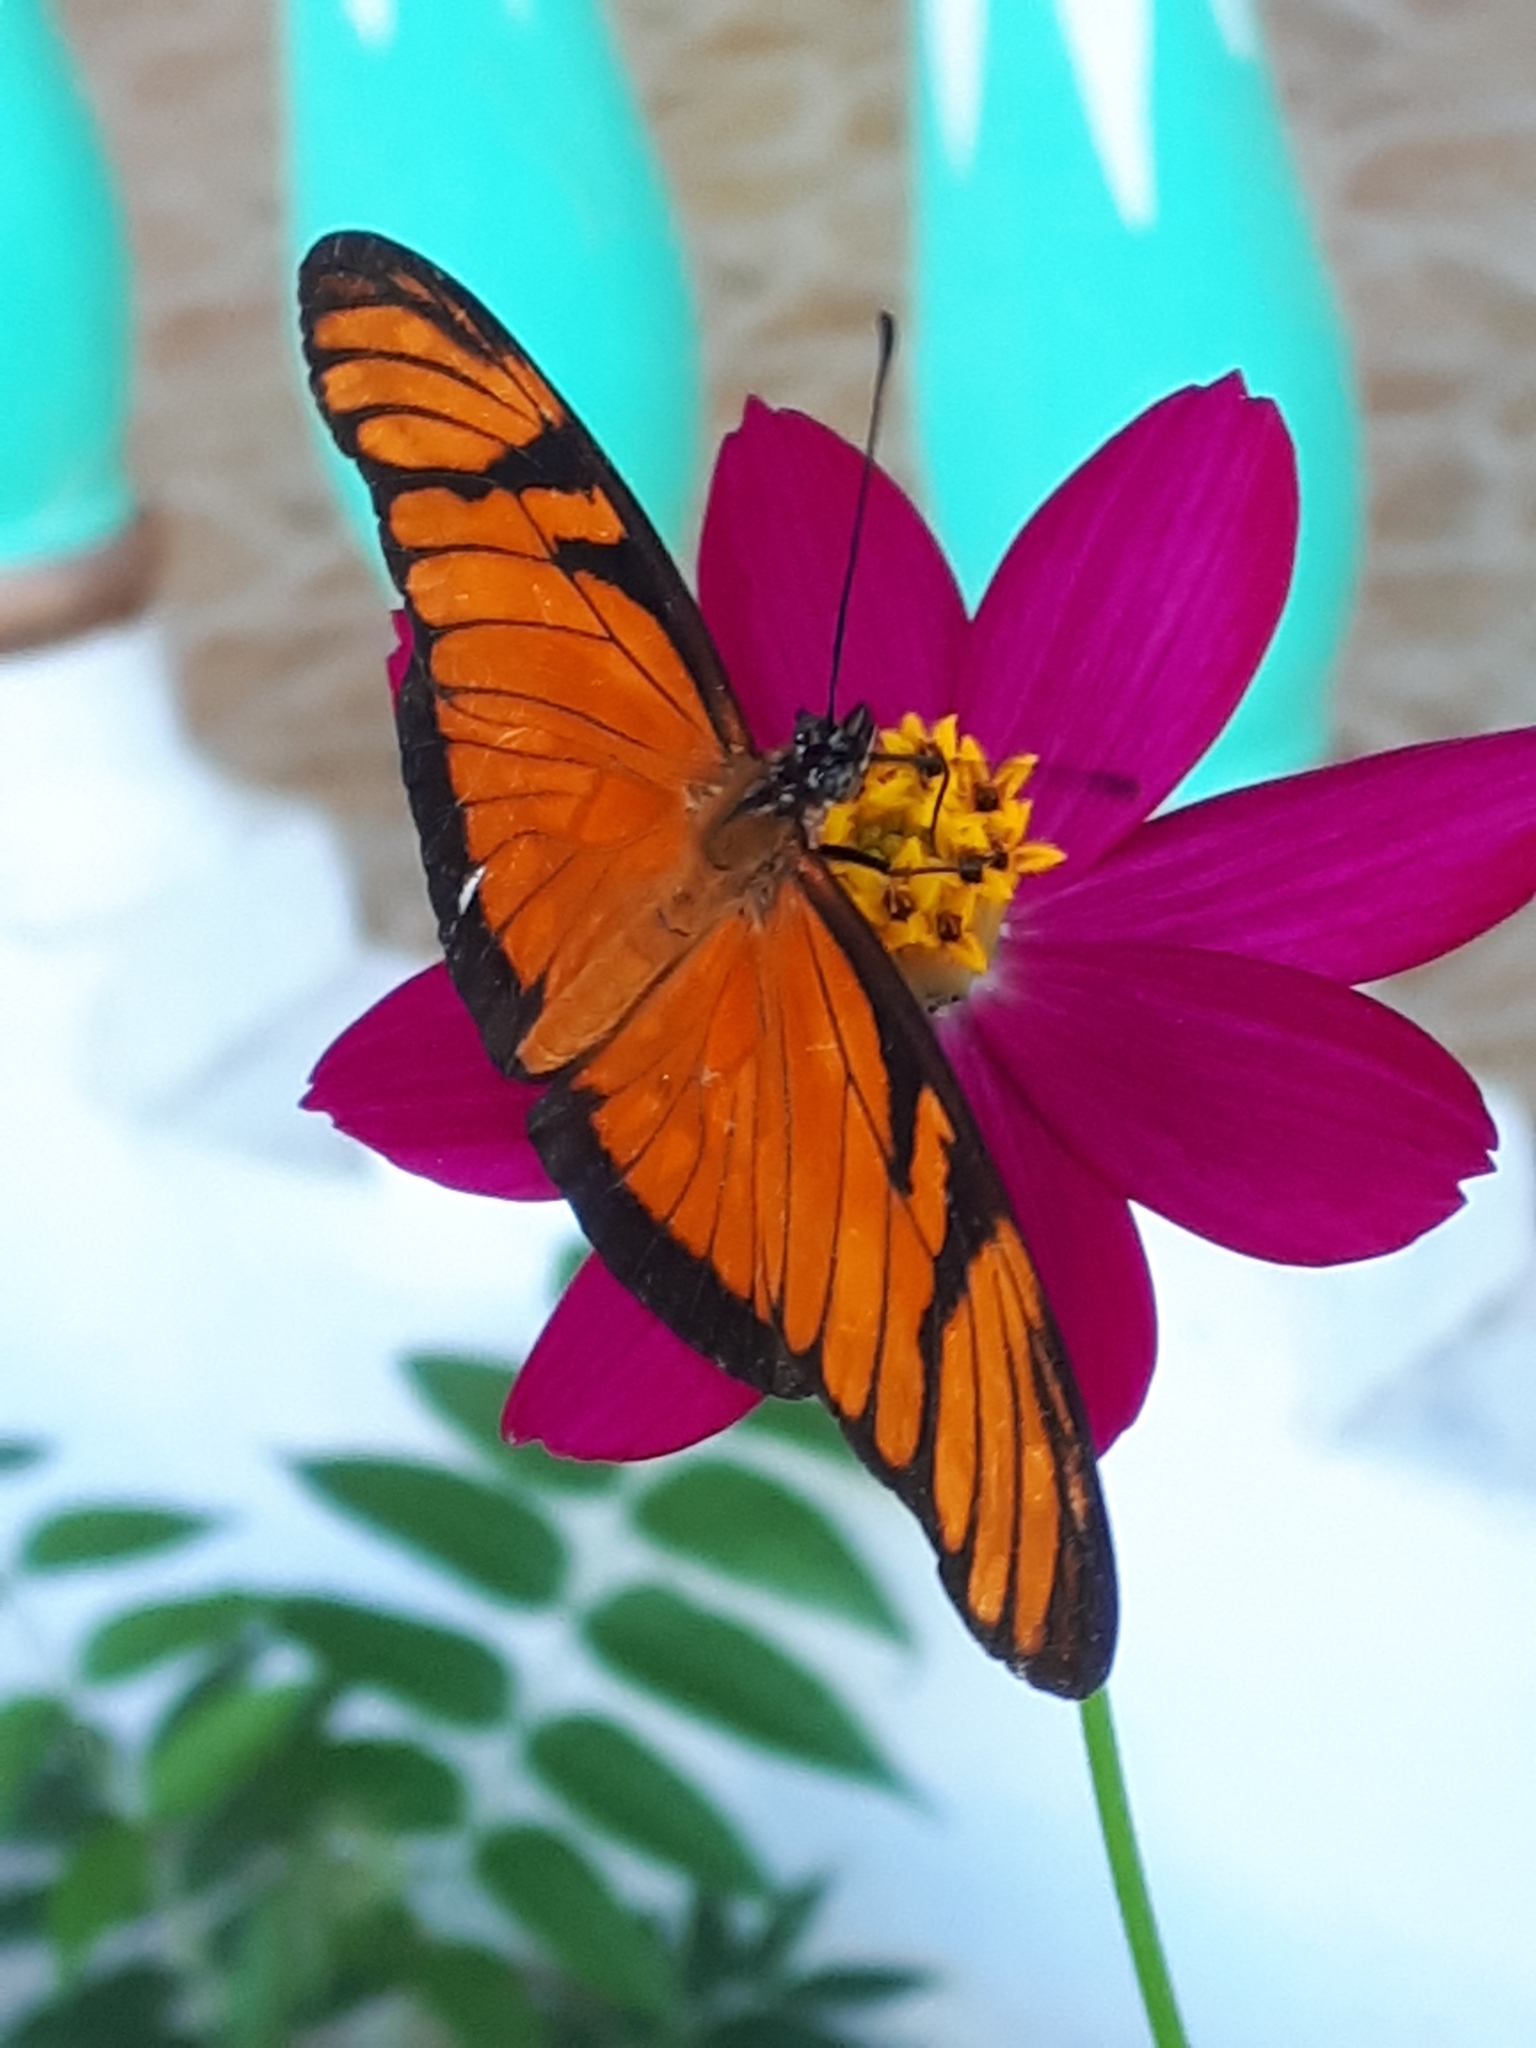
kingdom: Animalia
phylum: Arthropoda
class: Insecta
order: Lepidoptera
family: Nymphalidae
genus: Dione
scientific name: Dione juno
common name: Juno silverspot
